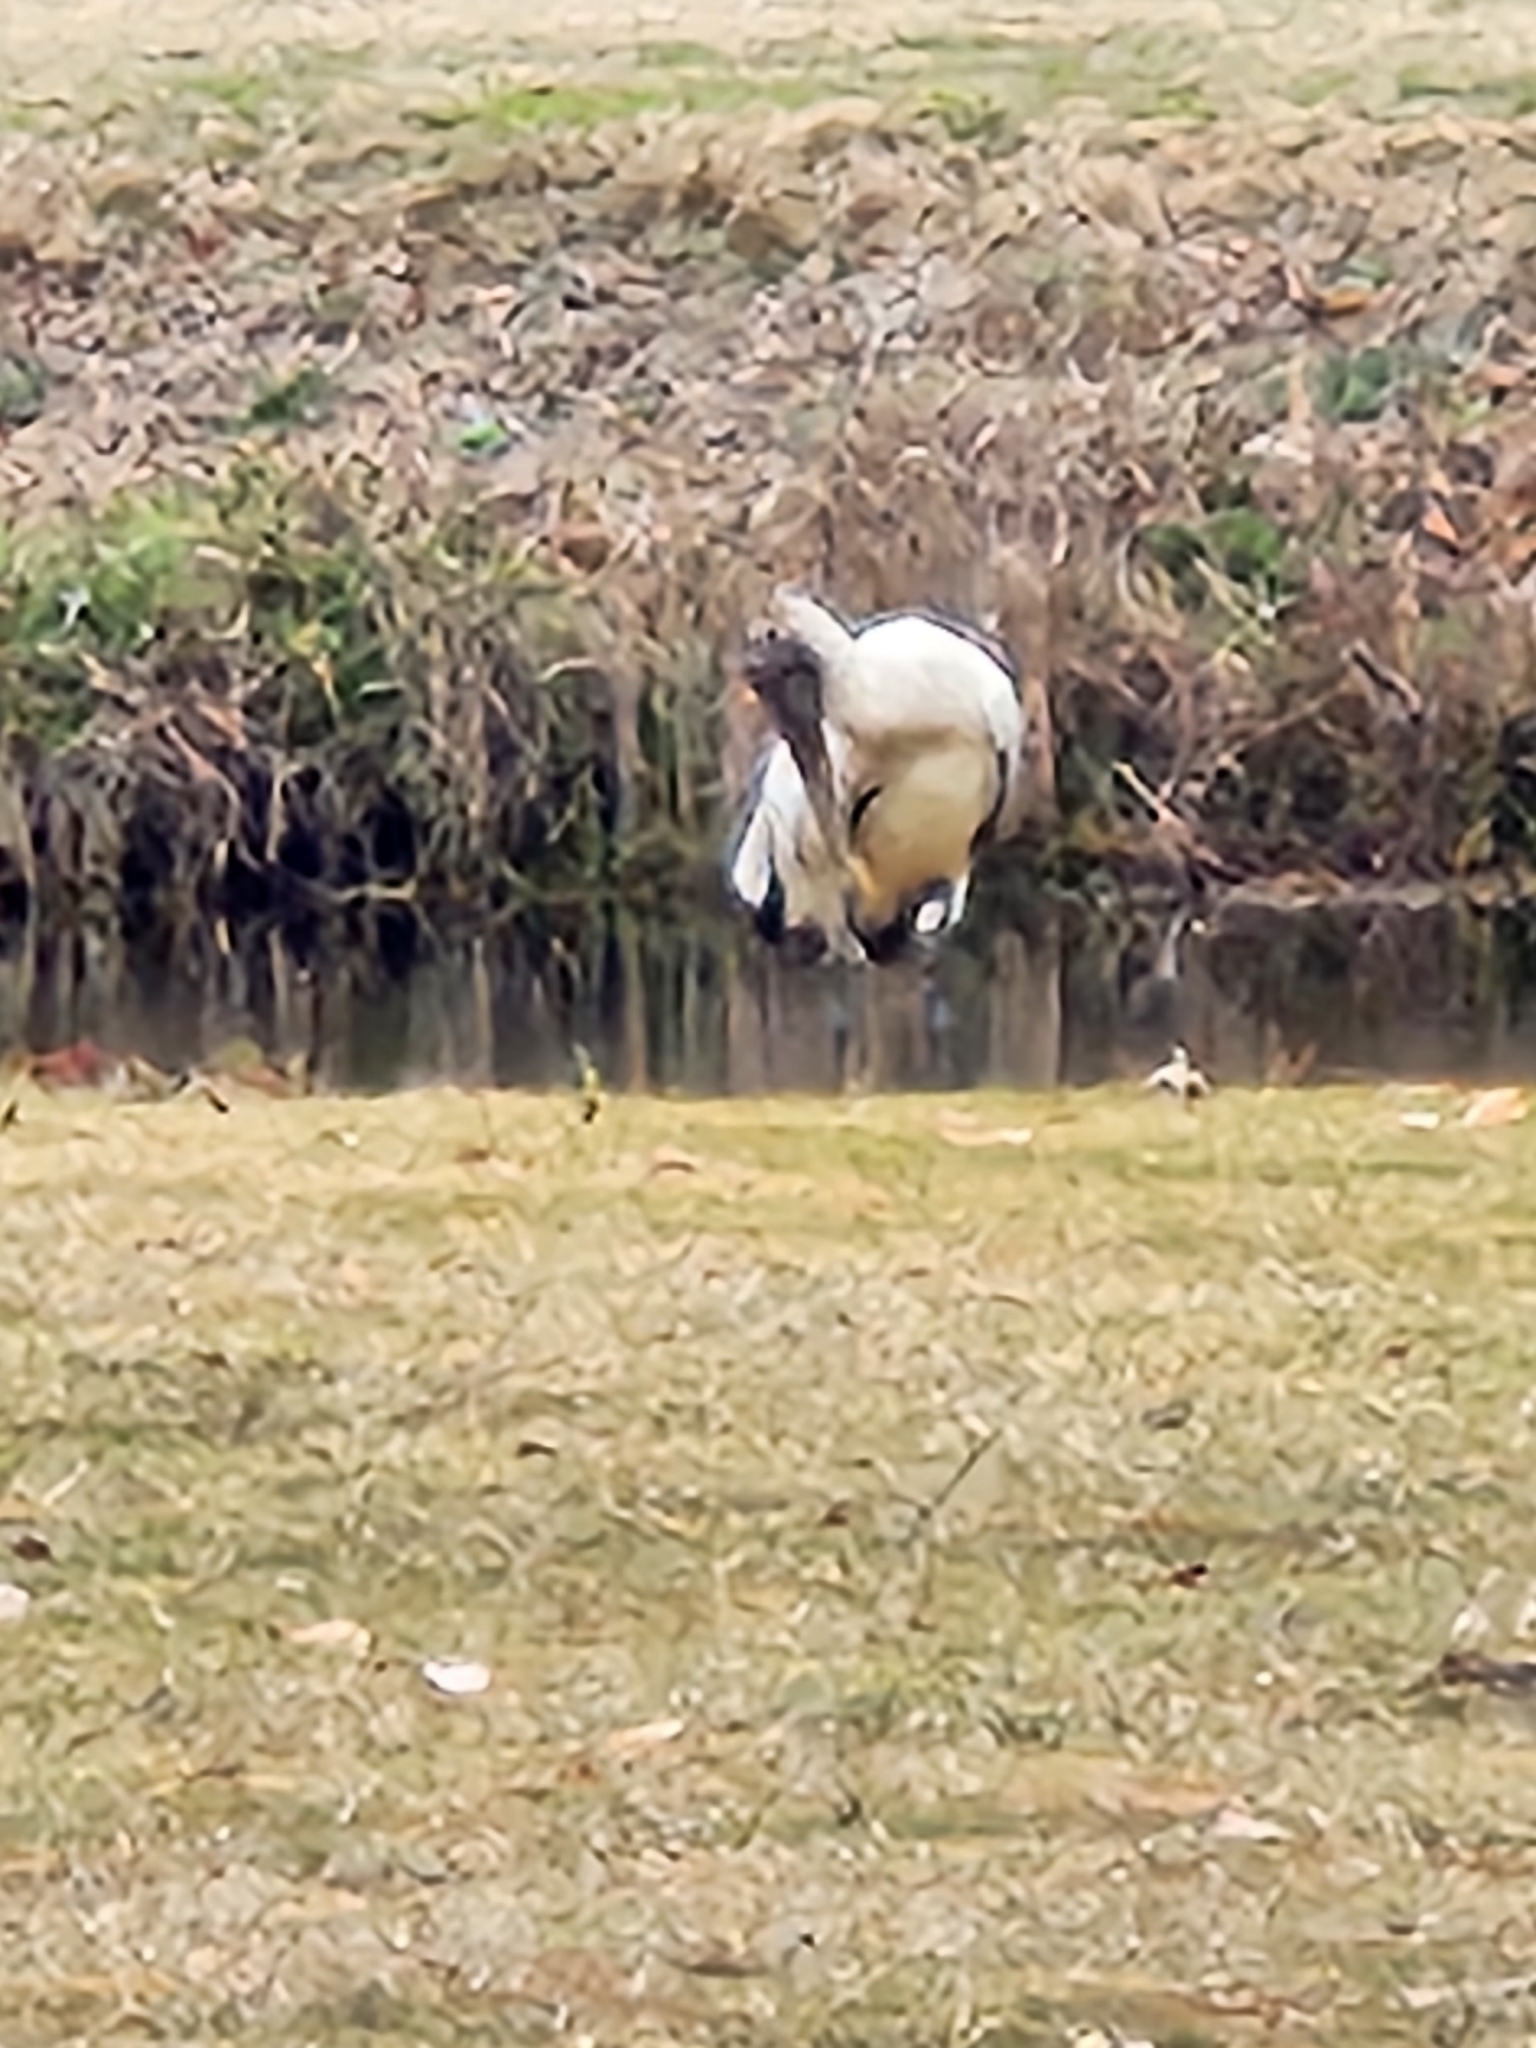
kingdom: Animalia
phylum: Chordata
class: Aves
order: Ciconiiformes
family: Ciconiidae
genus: Mycteria
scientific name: Mycteria americana
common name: Wood stork
